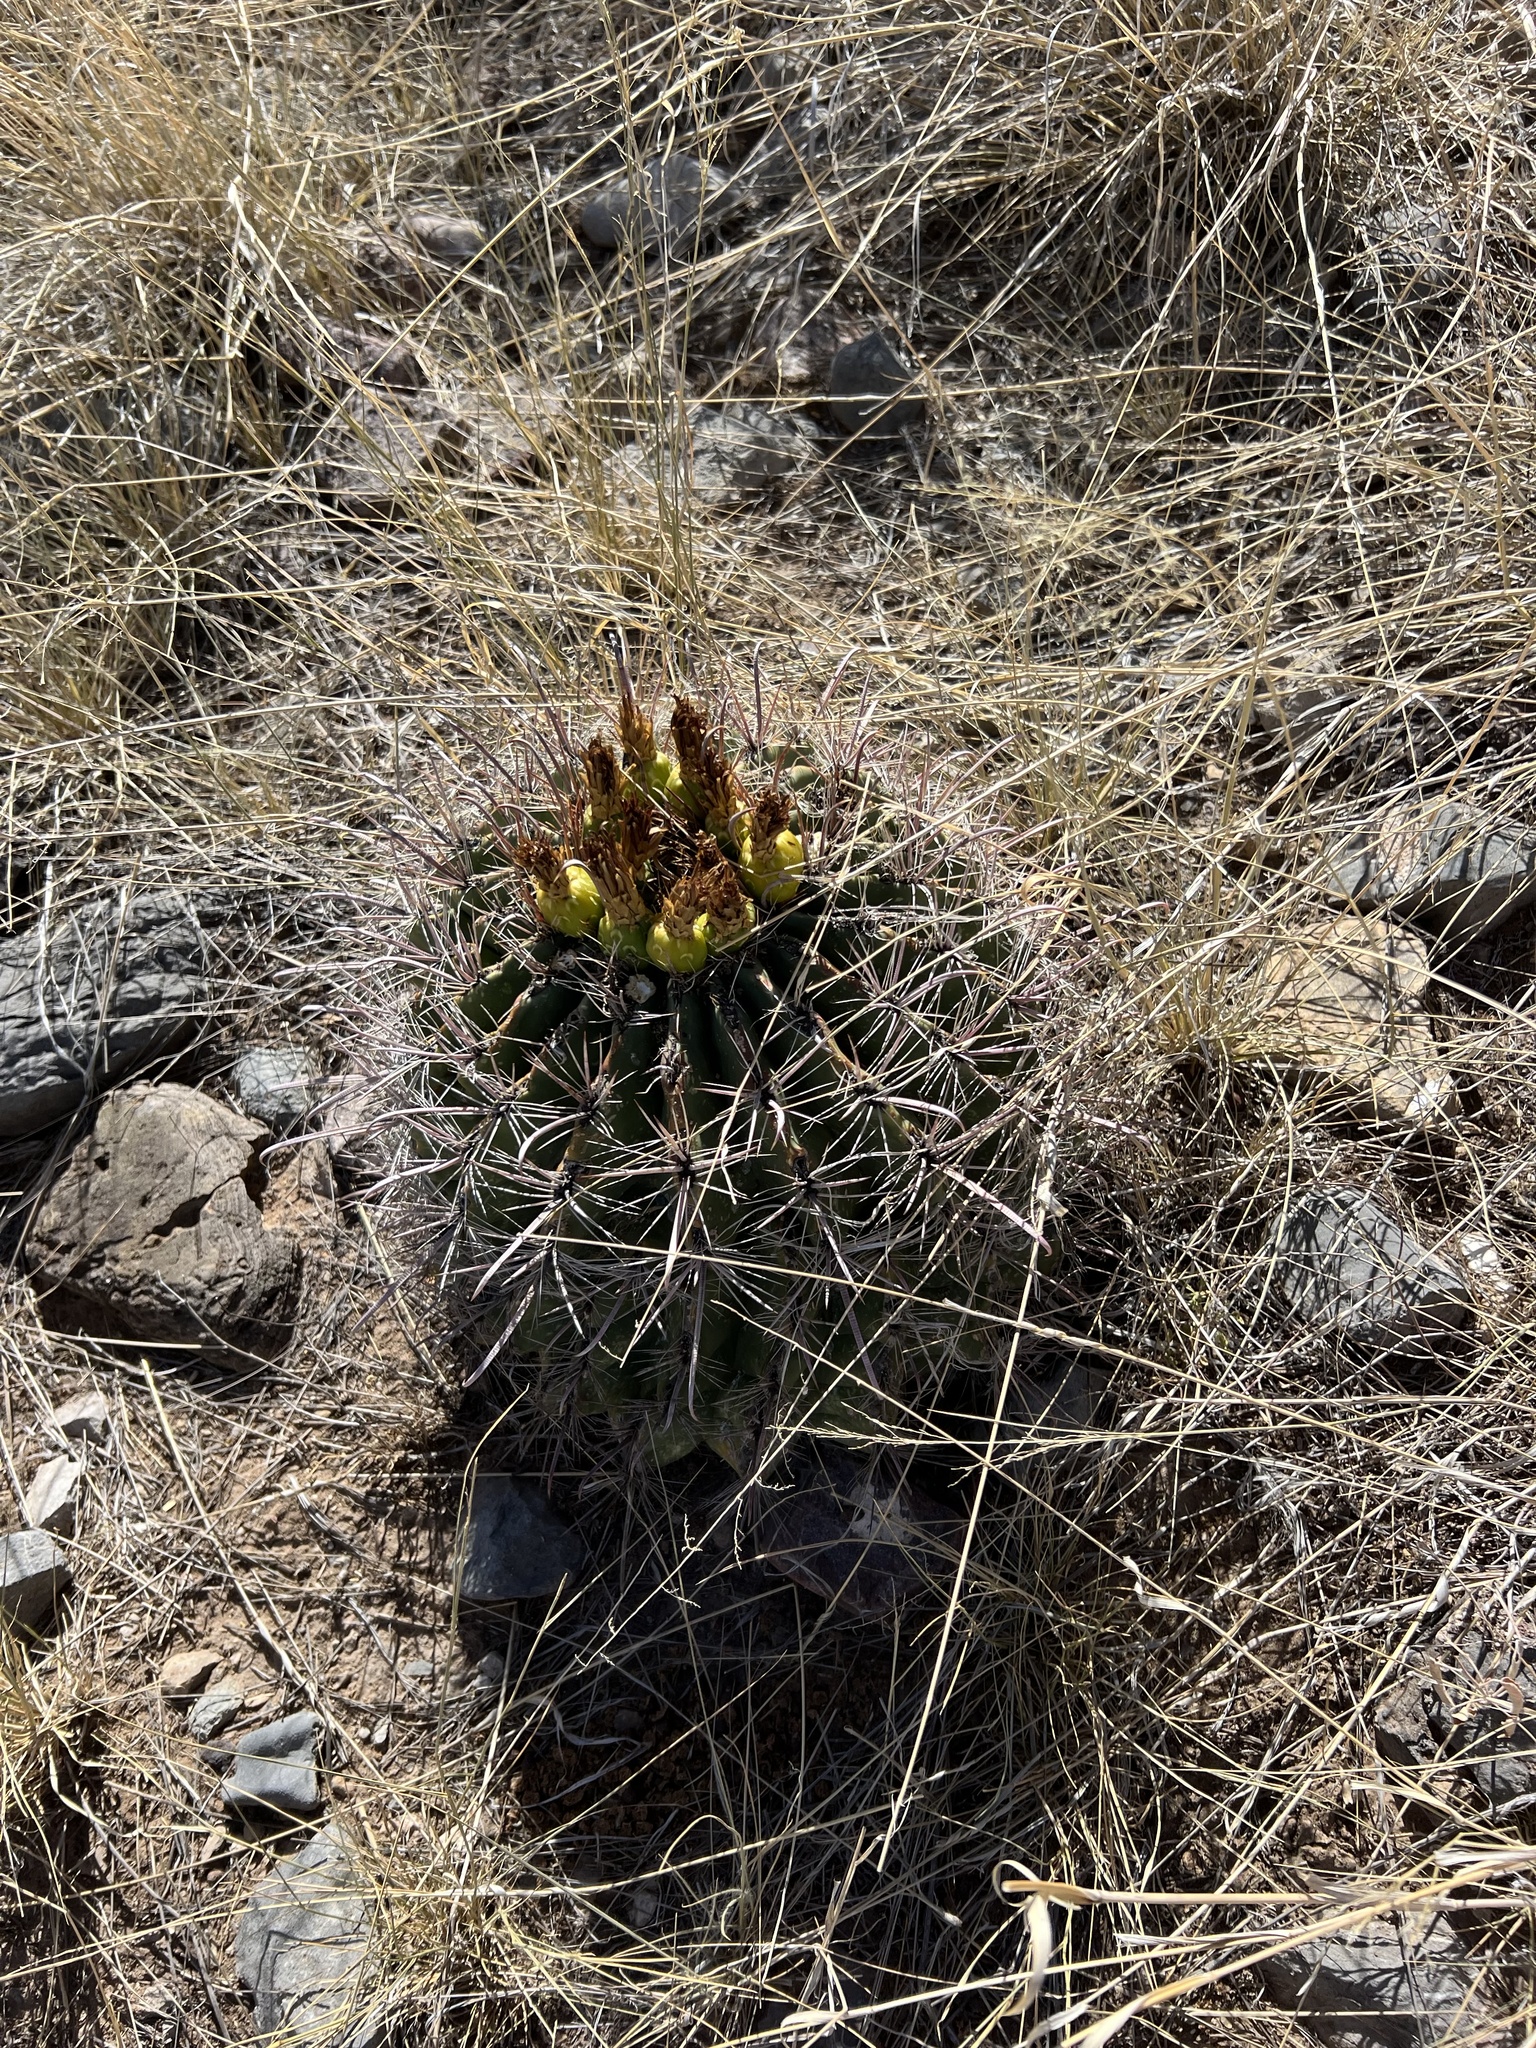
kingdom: Plantae
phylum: Tracheophyta
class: Magnoliopsida
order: Caryophyllales
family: Cactaceae
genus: Ferocactus
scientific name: Ferocactus wislizeni
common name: Candy barrel cactus
